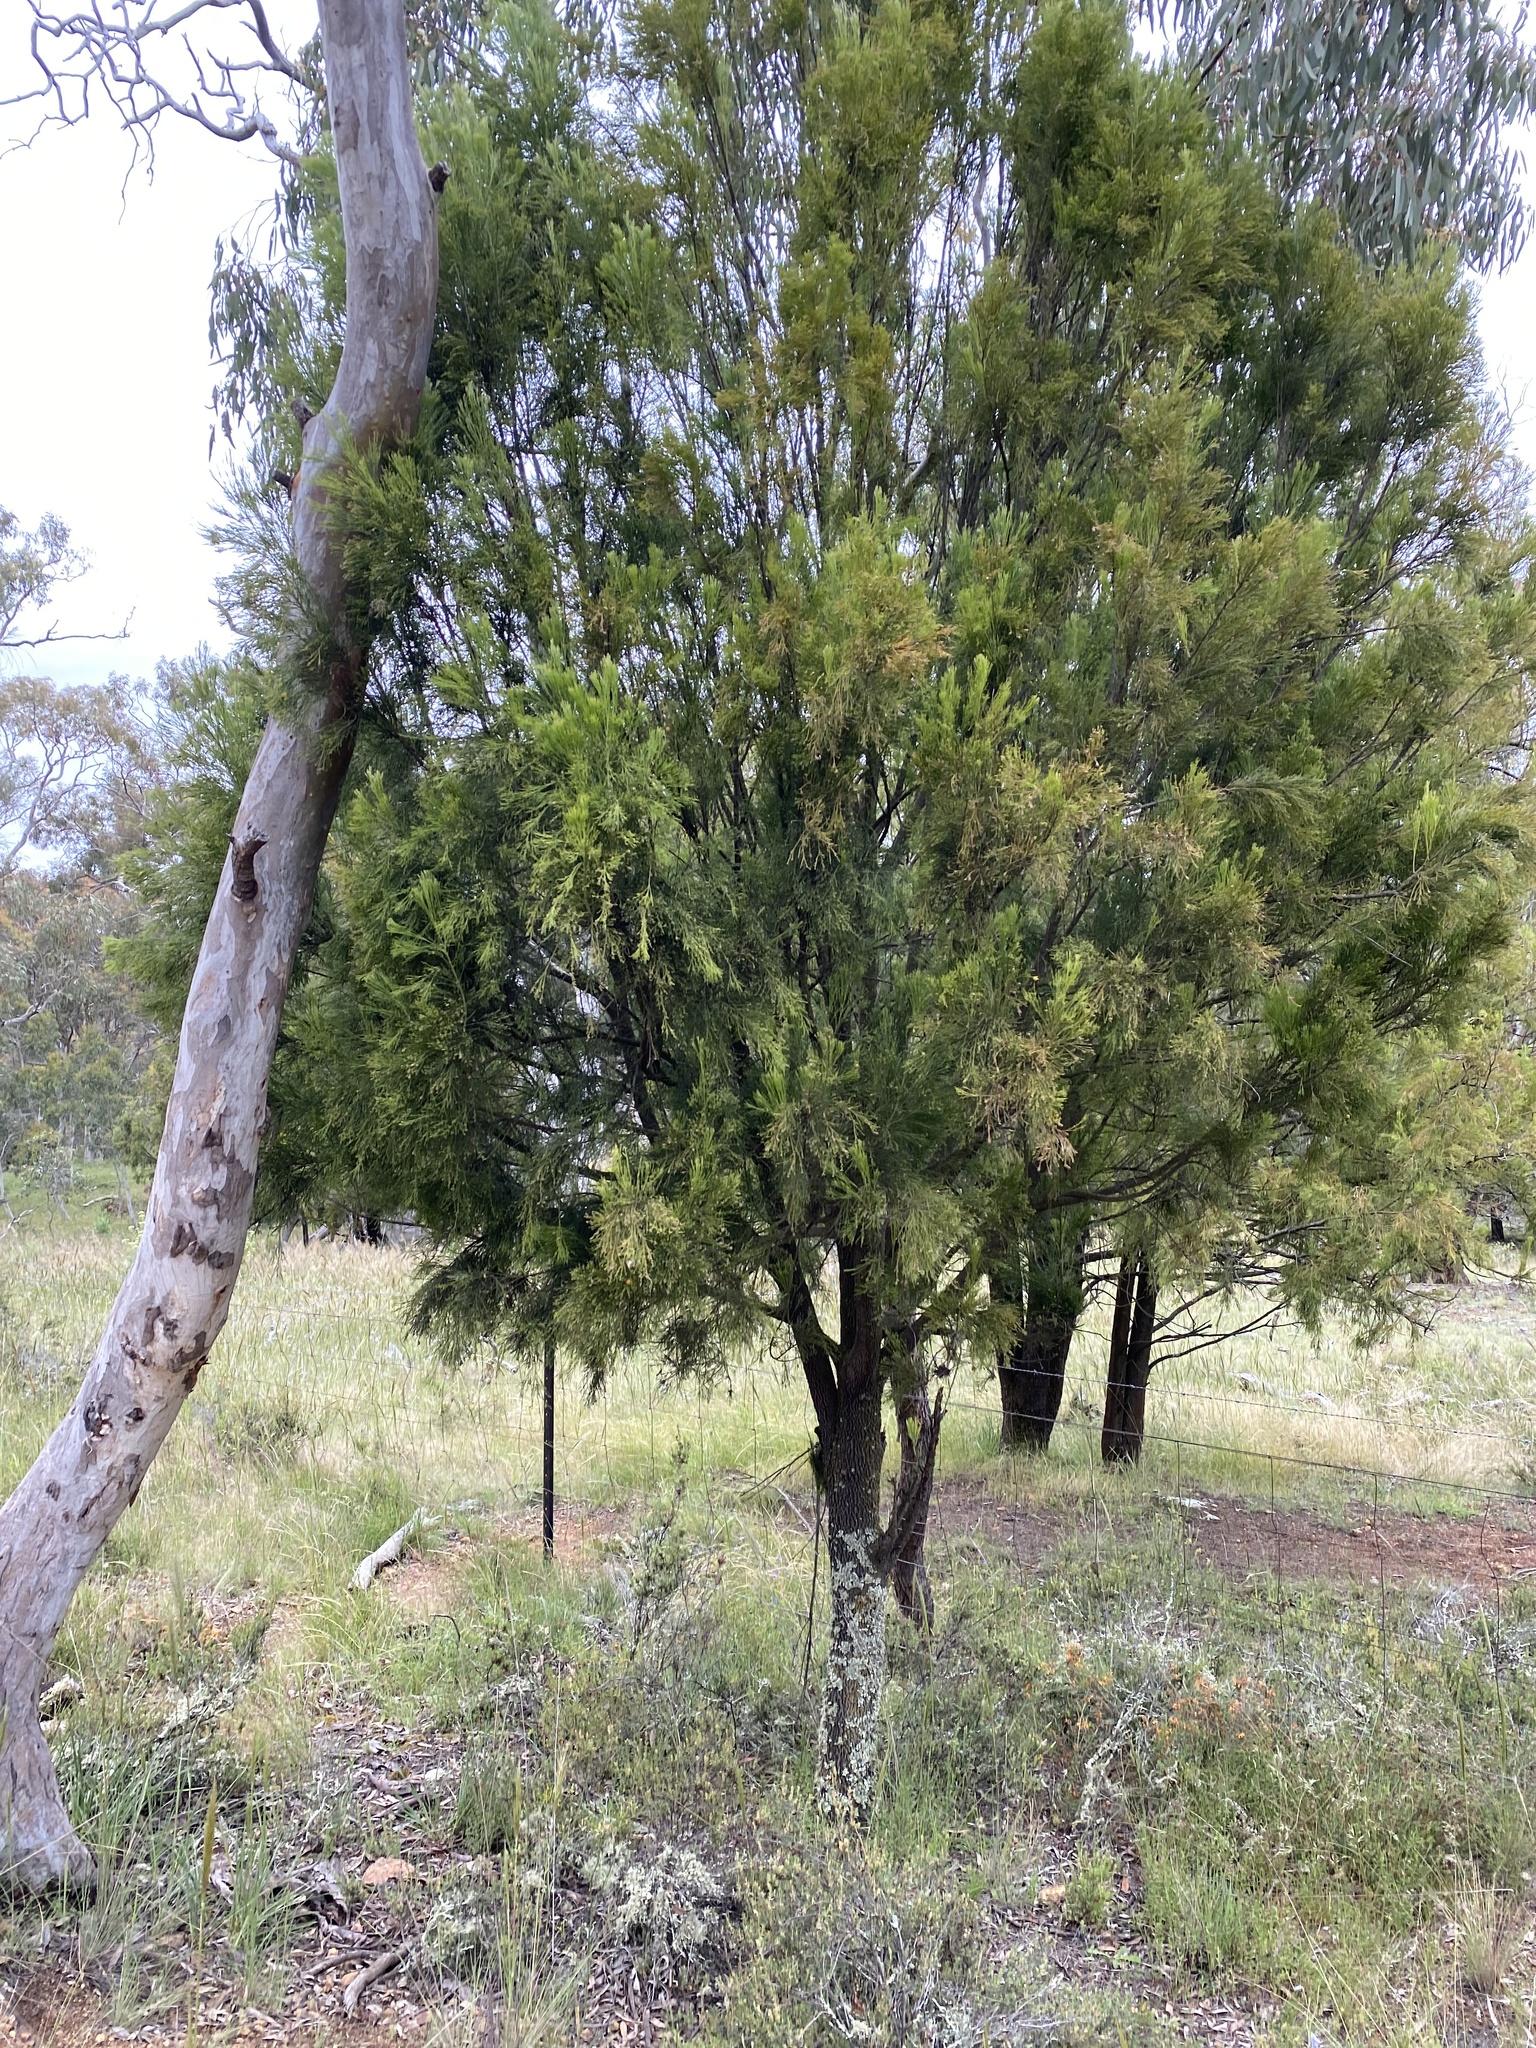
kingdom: Plantae
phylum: Tracheophyta
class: Magnoliopsida
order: Santalales
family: Santalaceae
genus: Exocarpos
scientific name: Exocarpos cupressiformis
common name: Cherry ballart
